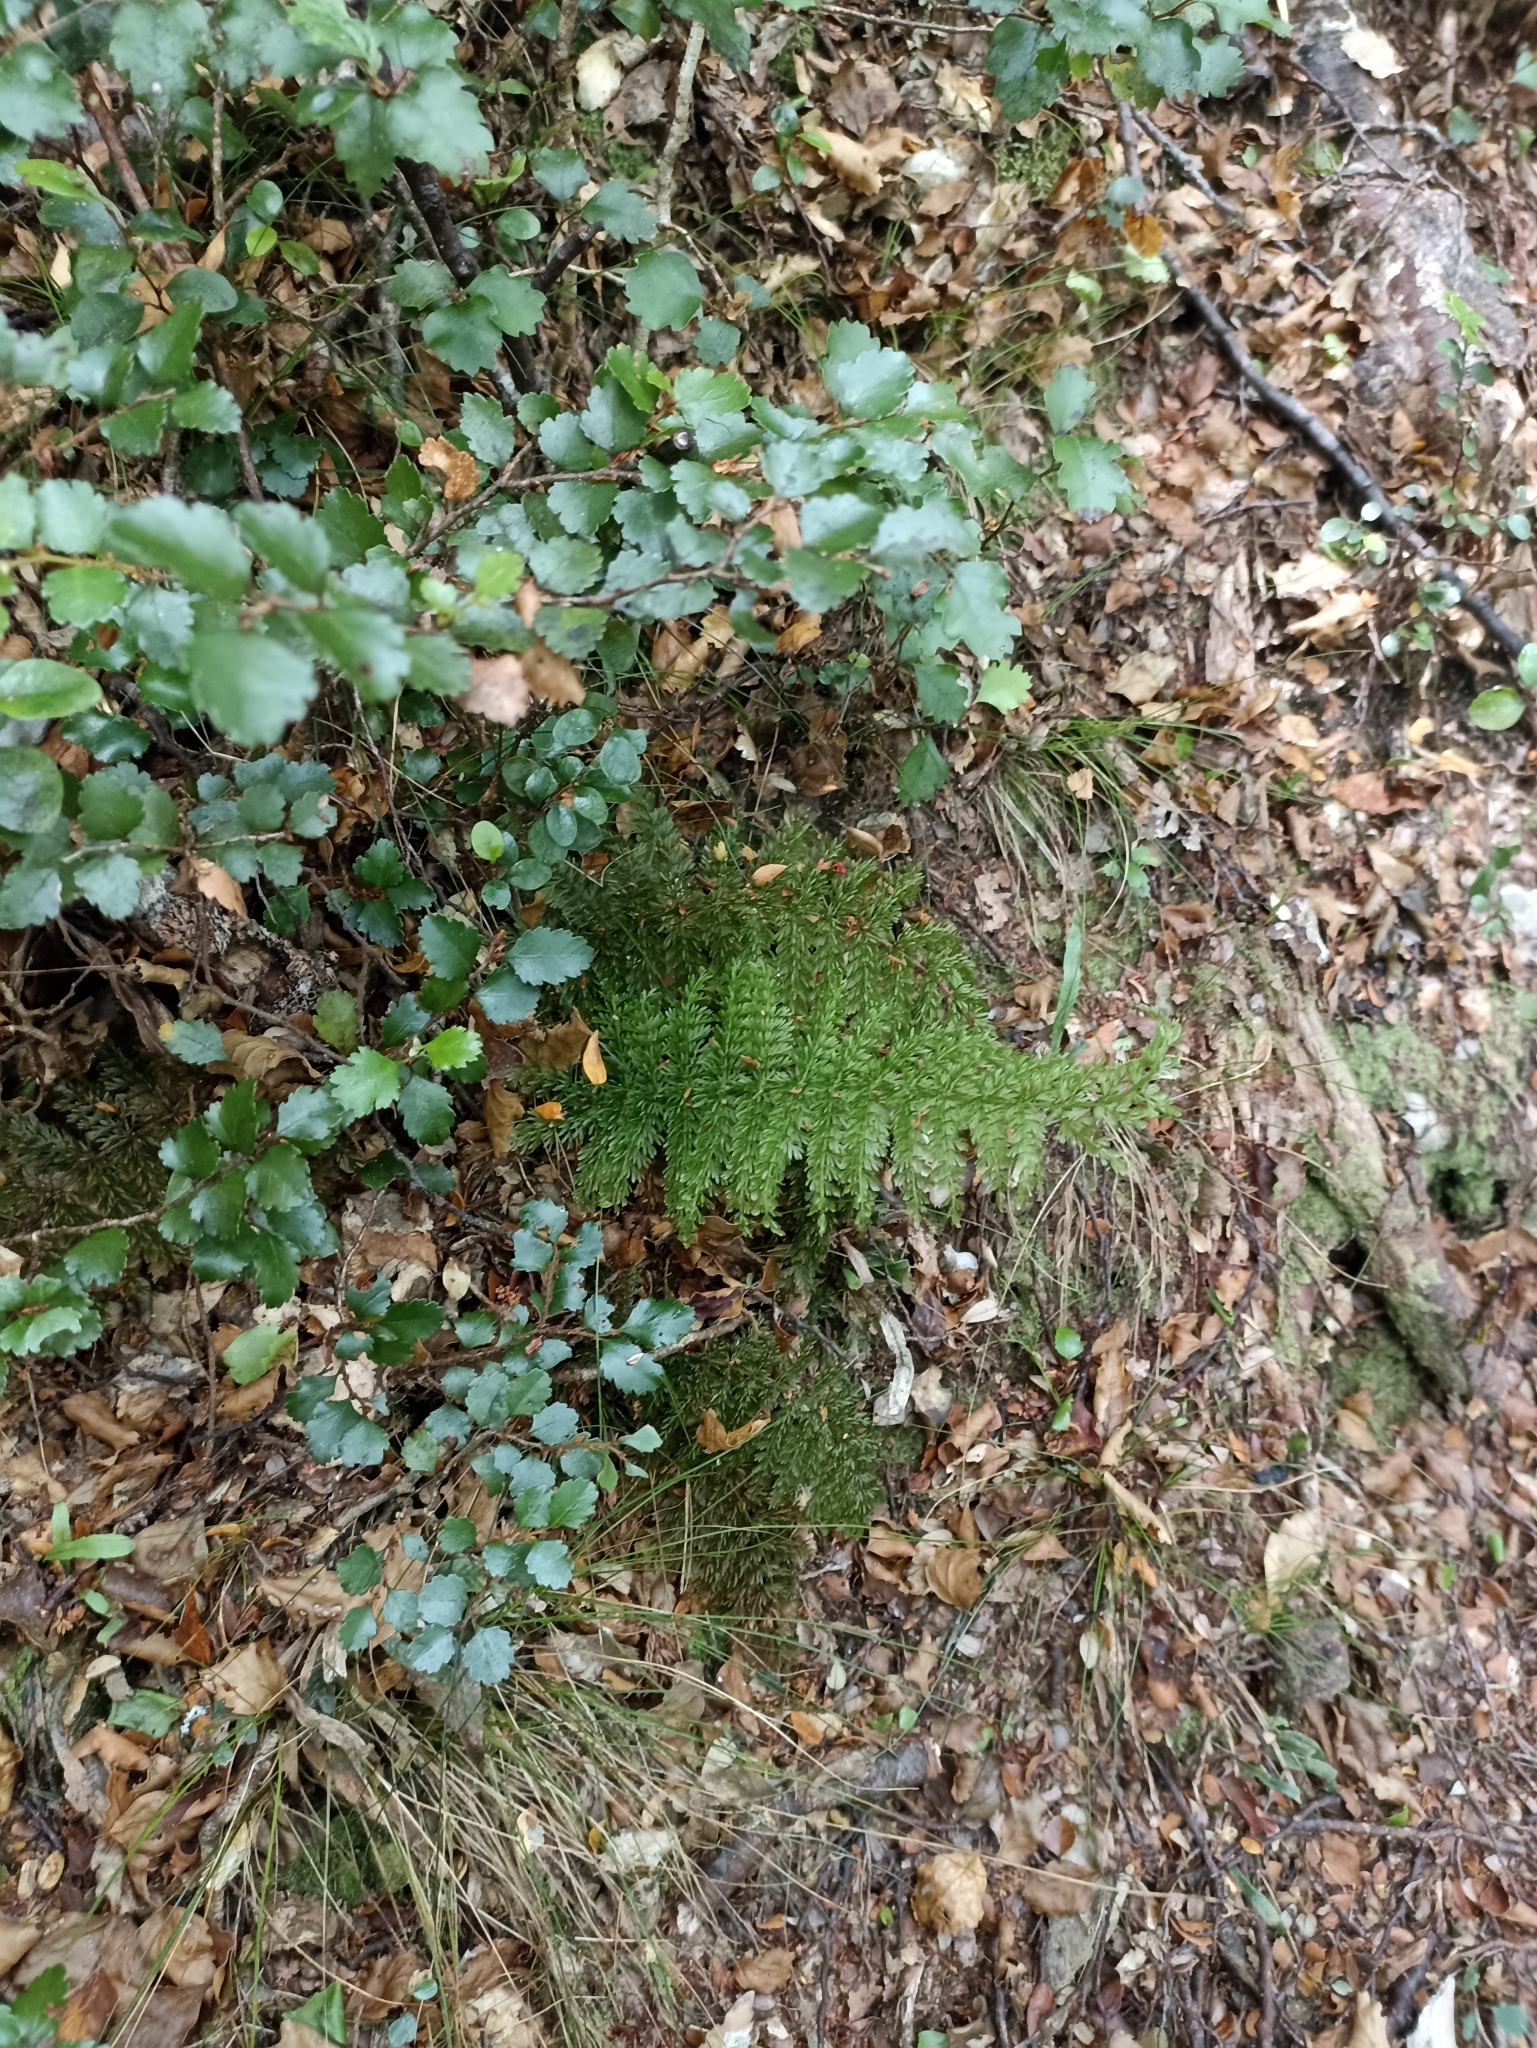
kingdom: Plantae
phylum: Tracheophyta
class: Polypodiopsida
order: Osmundales
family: Osmundaceae
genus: Leptopteris
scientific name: Leptopteris superba
